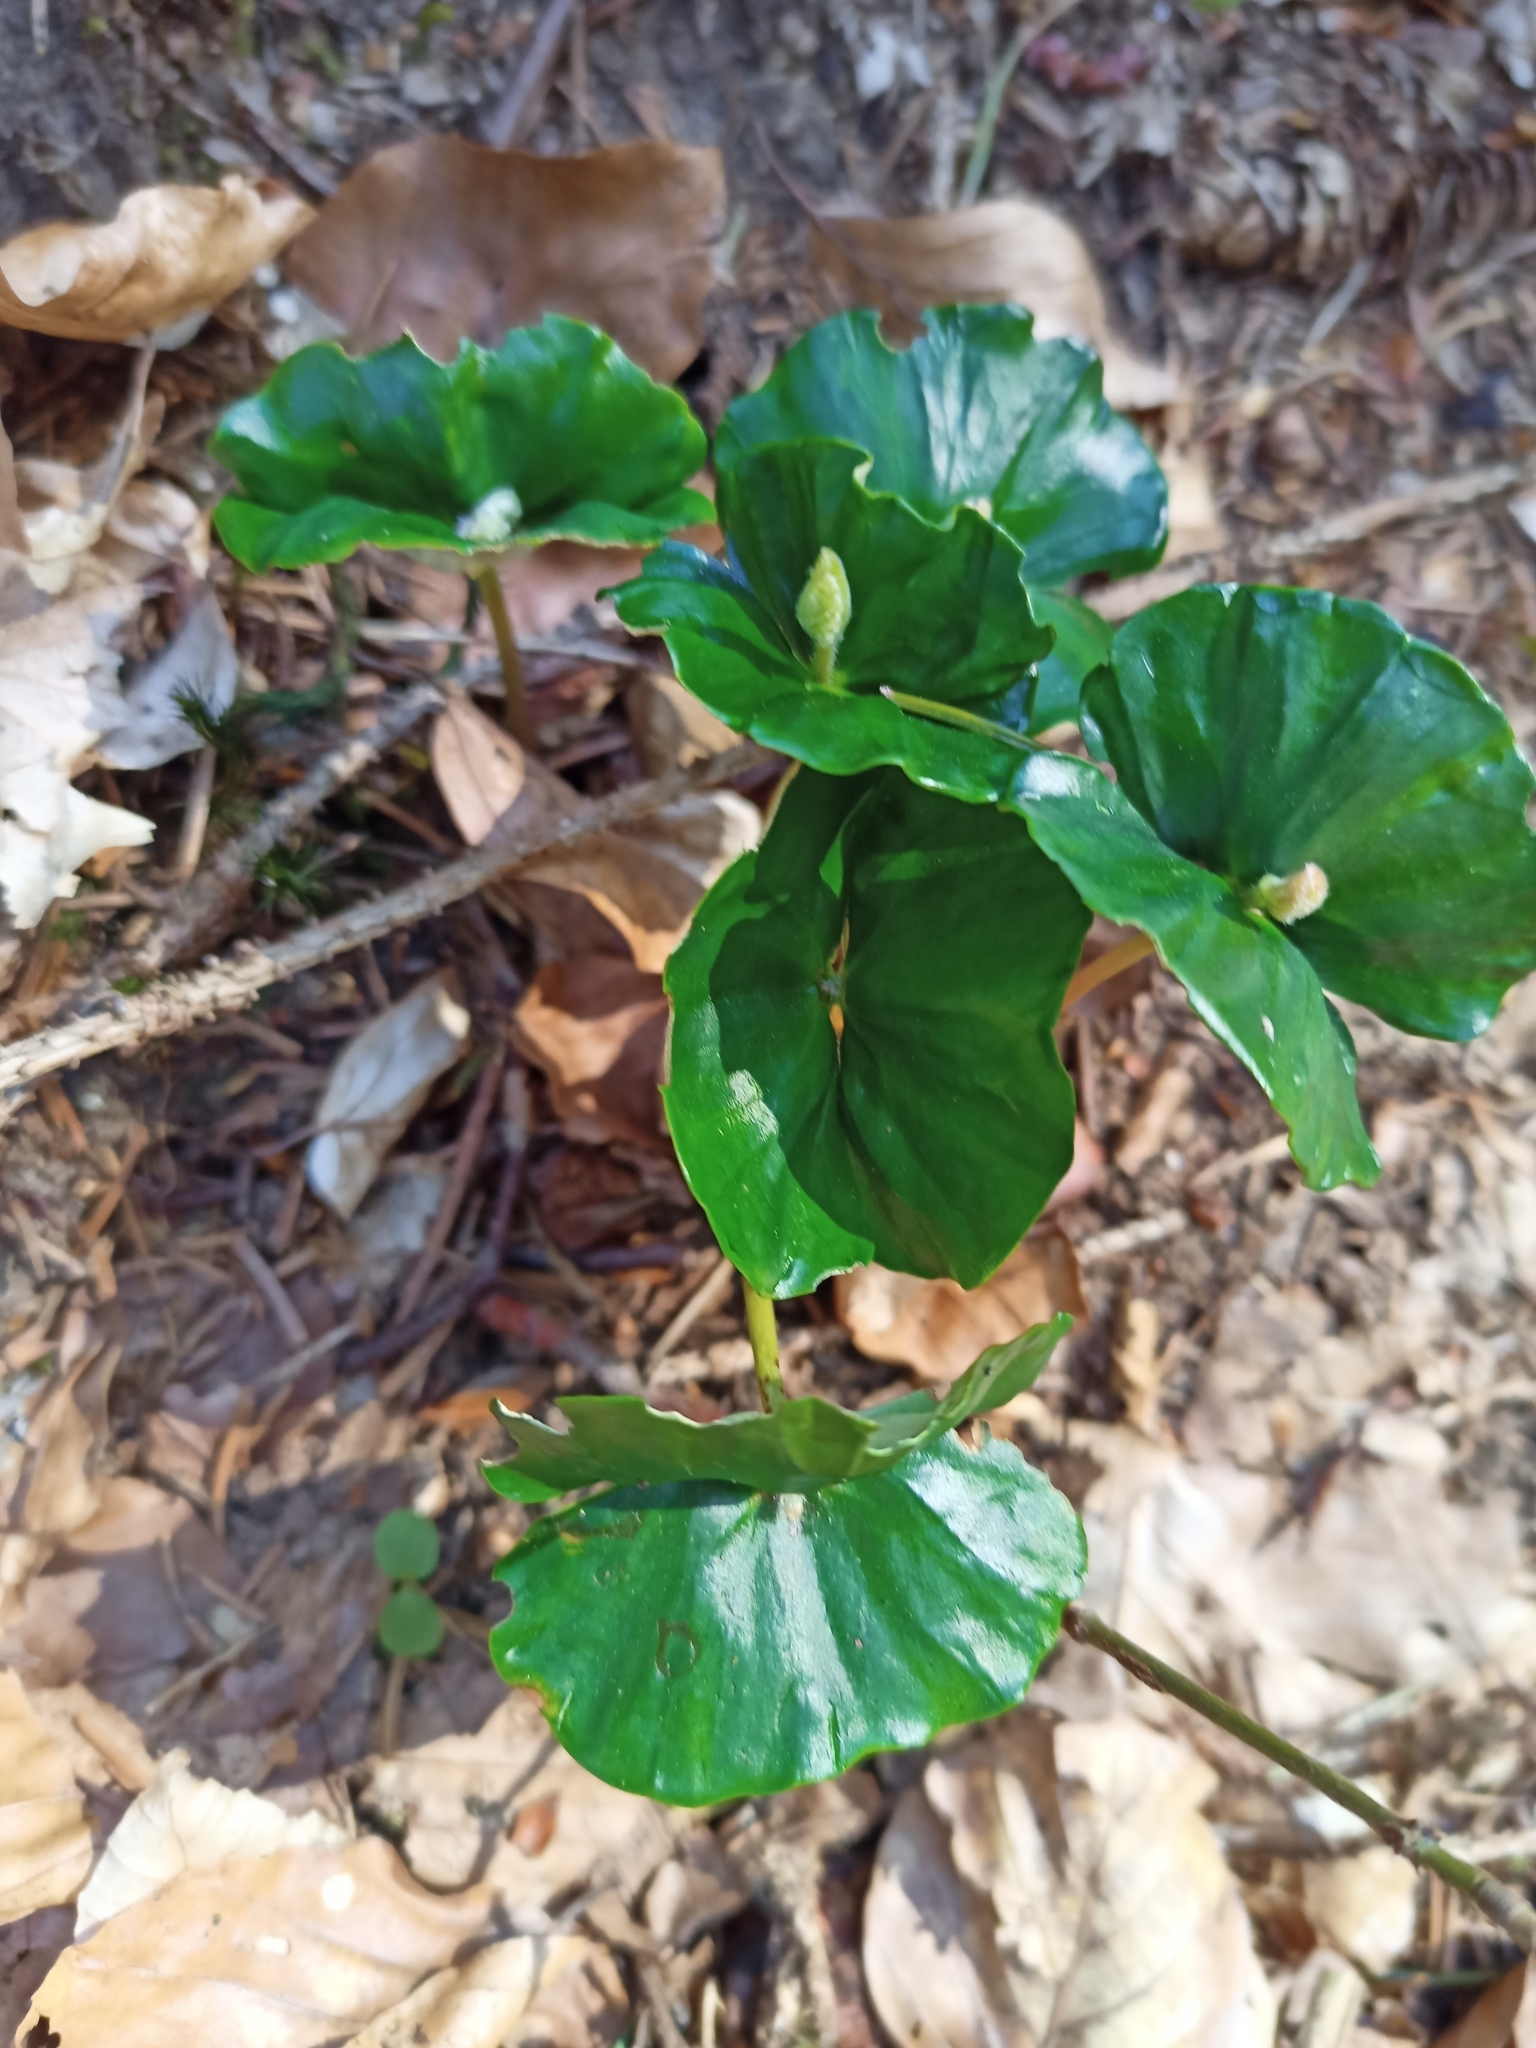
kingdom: Plantae
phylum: Tracheophyta
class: Magnoliopsida
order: Fagales
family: Fagaceae
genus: Fagus
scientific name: Fagus sylvatica
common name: Beech
